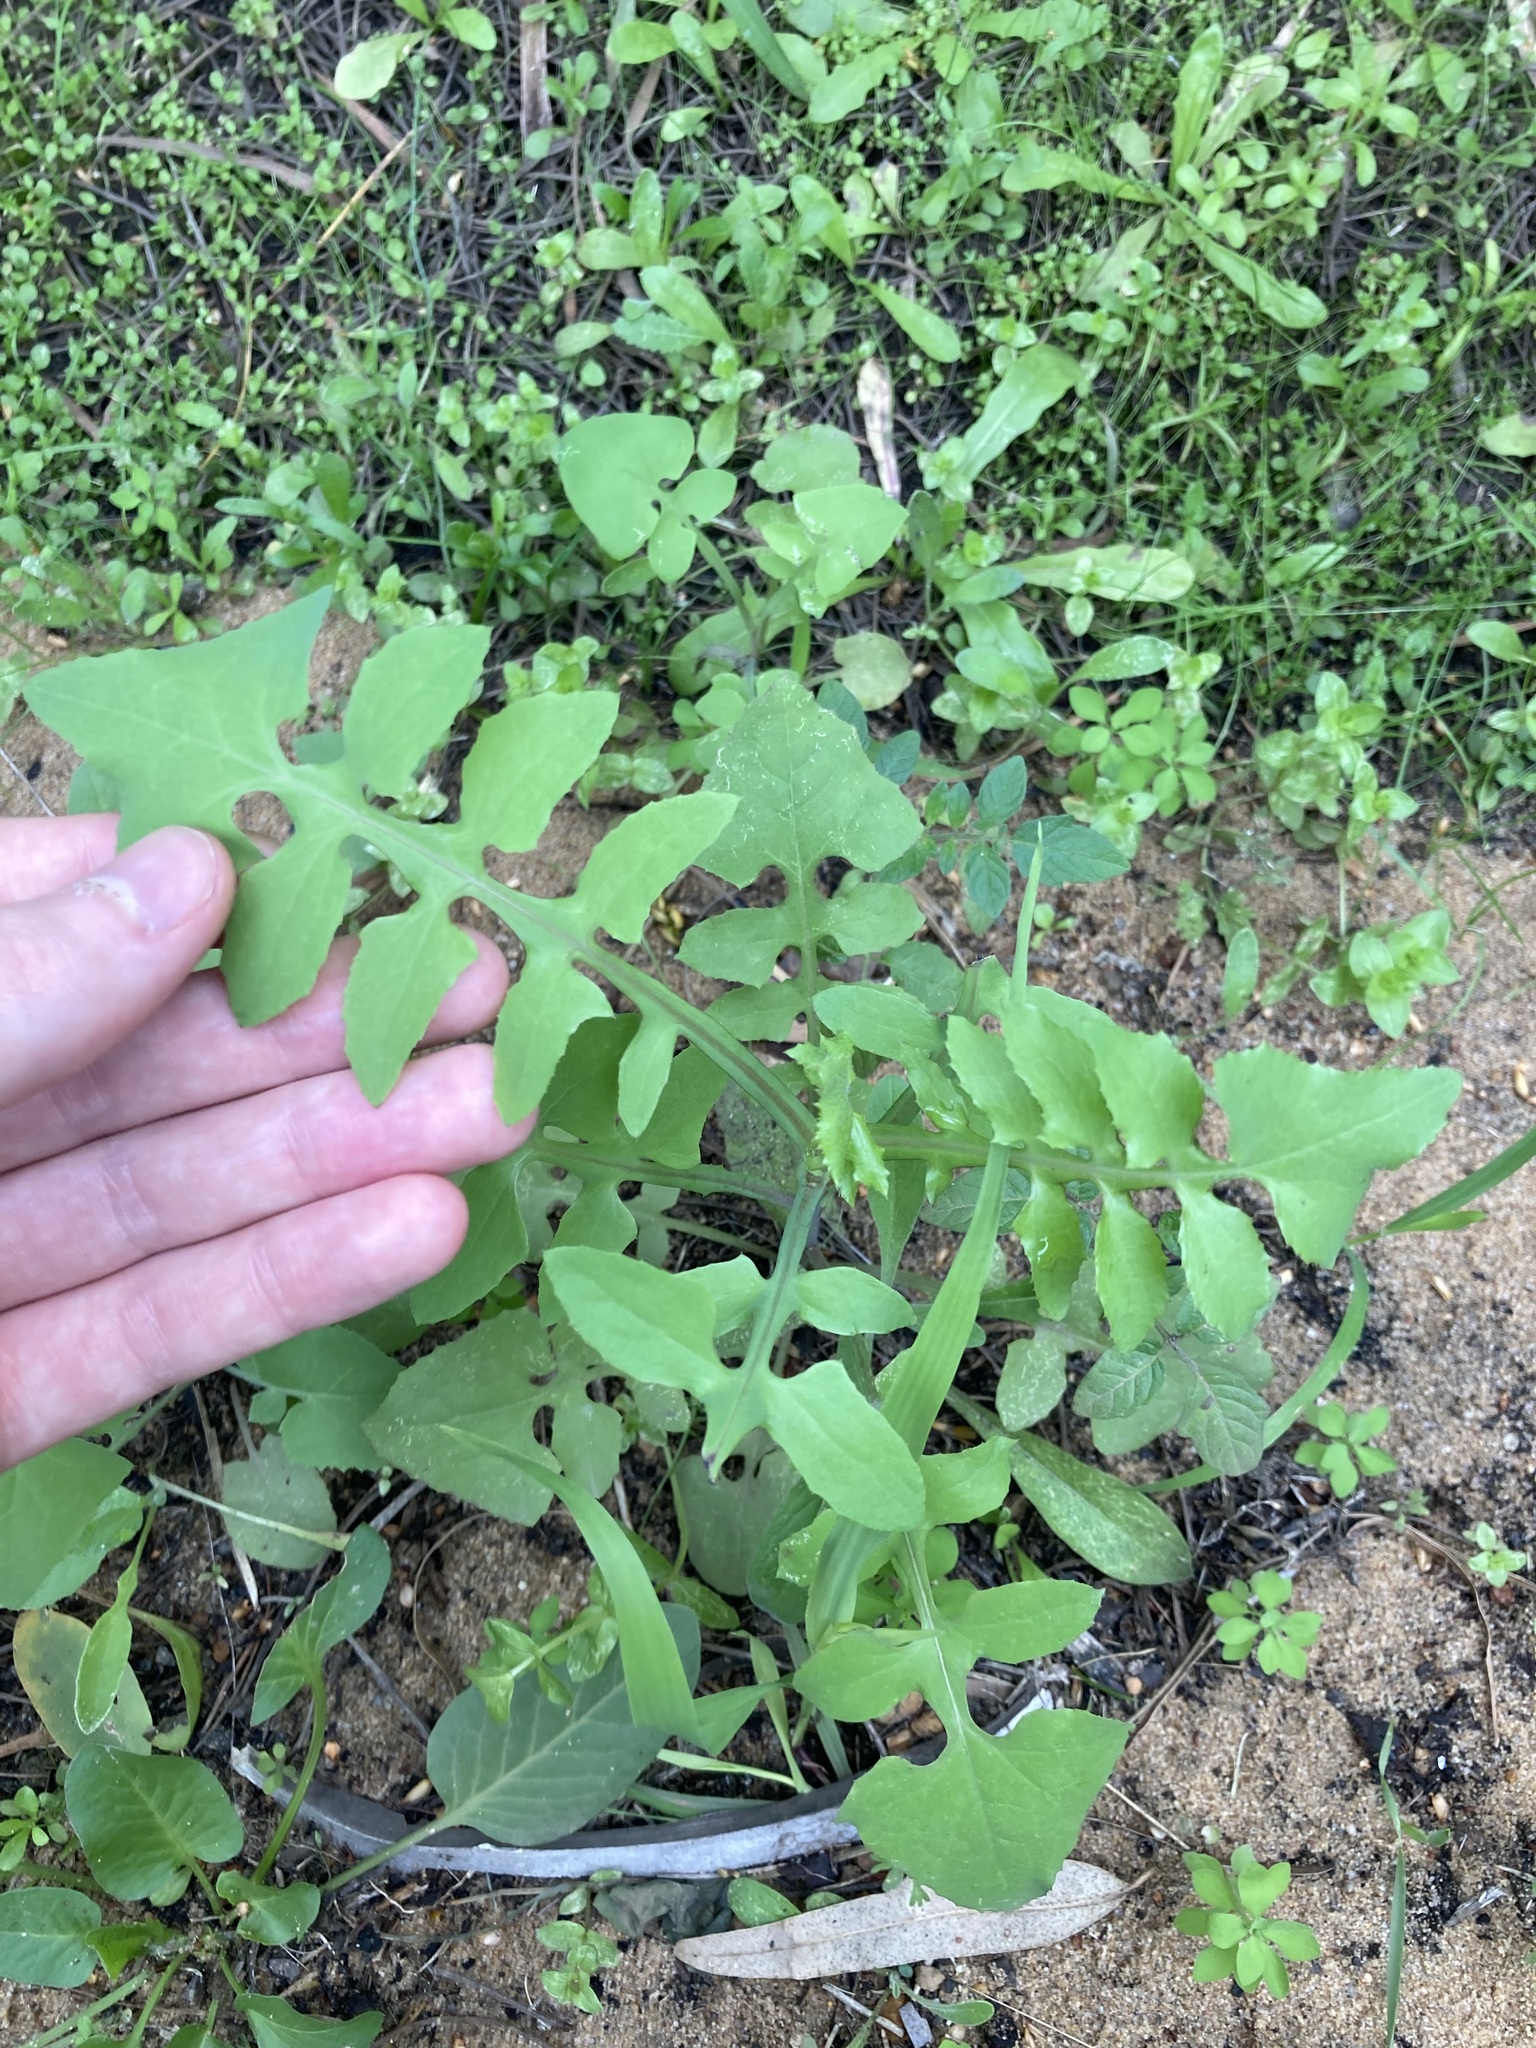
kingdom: Plantae
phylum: Tracheophyta
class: Magnoliopsida
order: Asterales
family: Asteraceae
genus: Sonchus
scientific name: Sonchus oleraceus
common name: Common sowthistle
